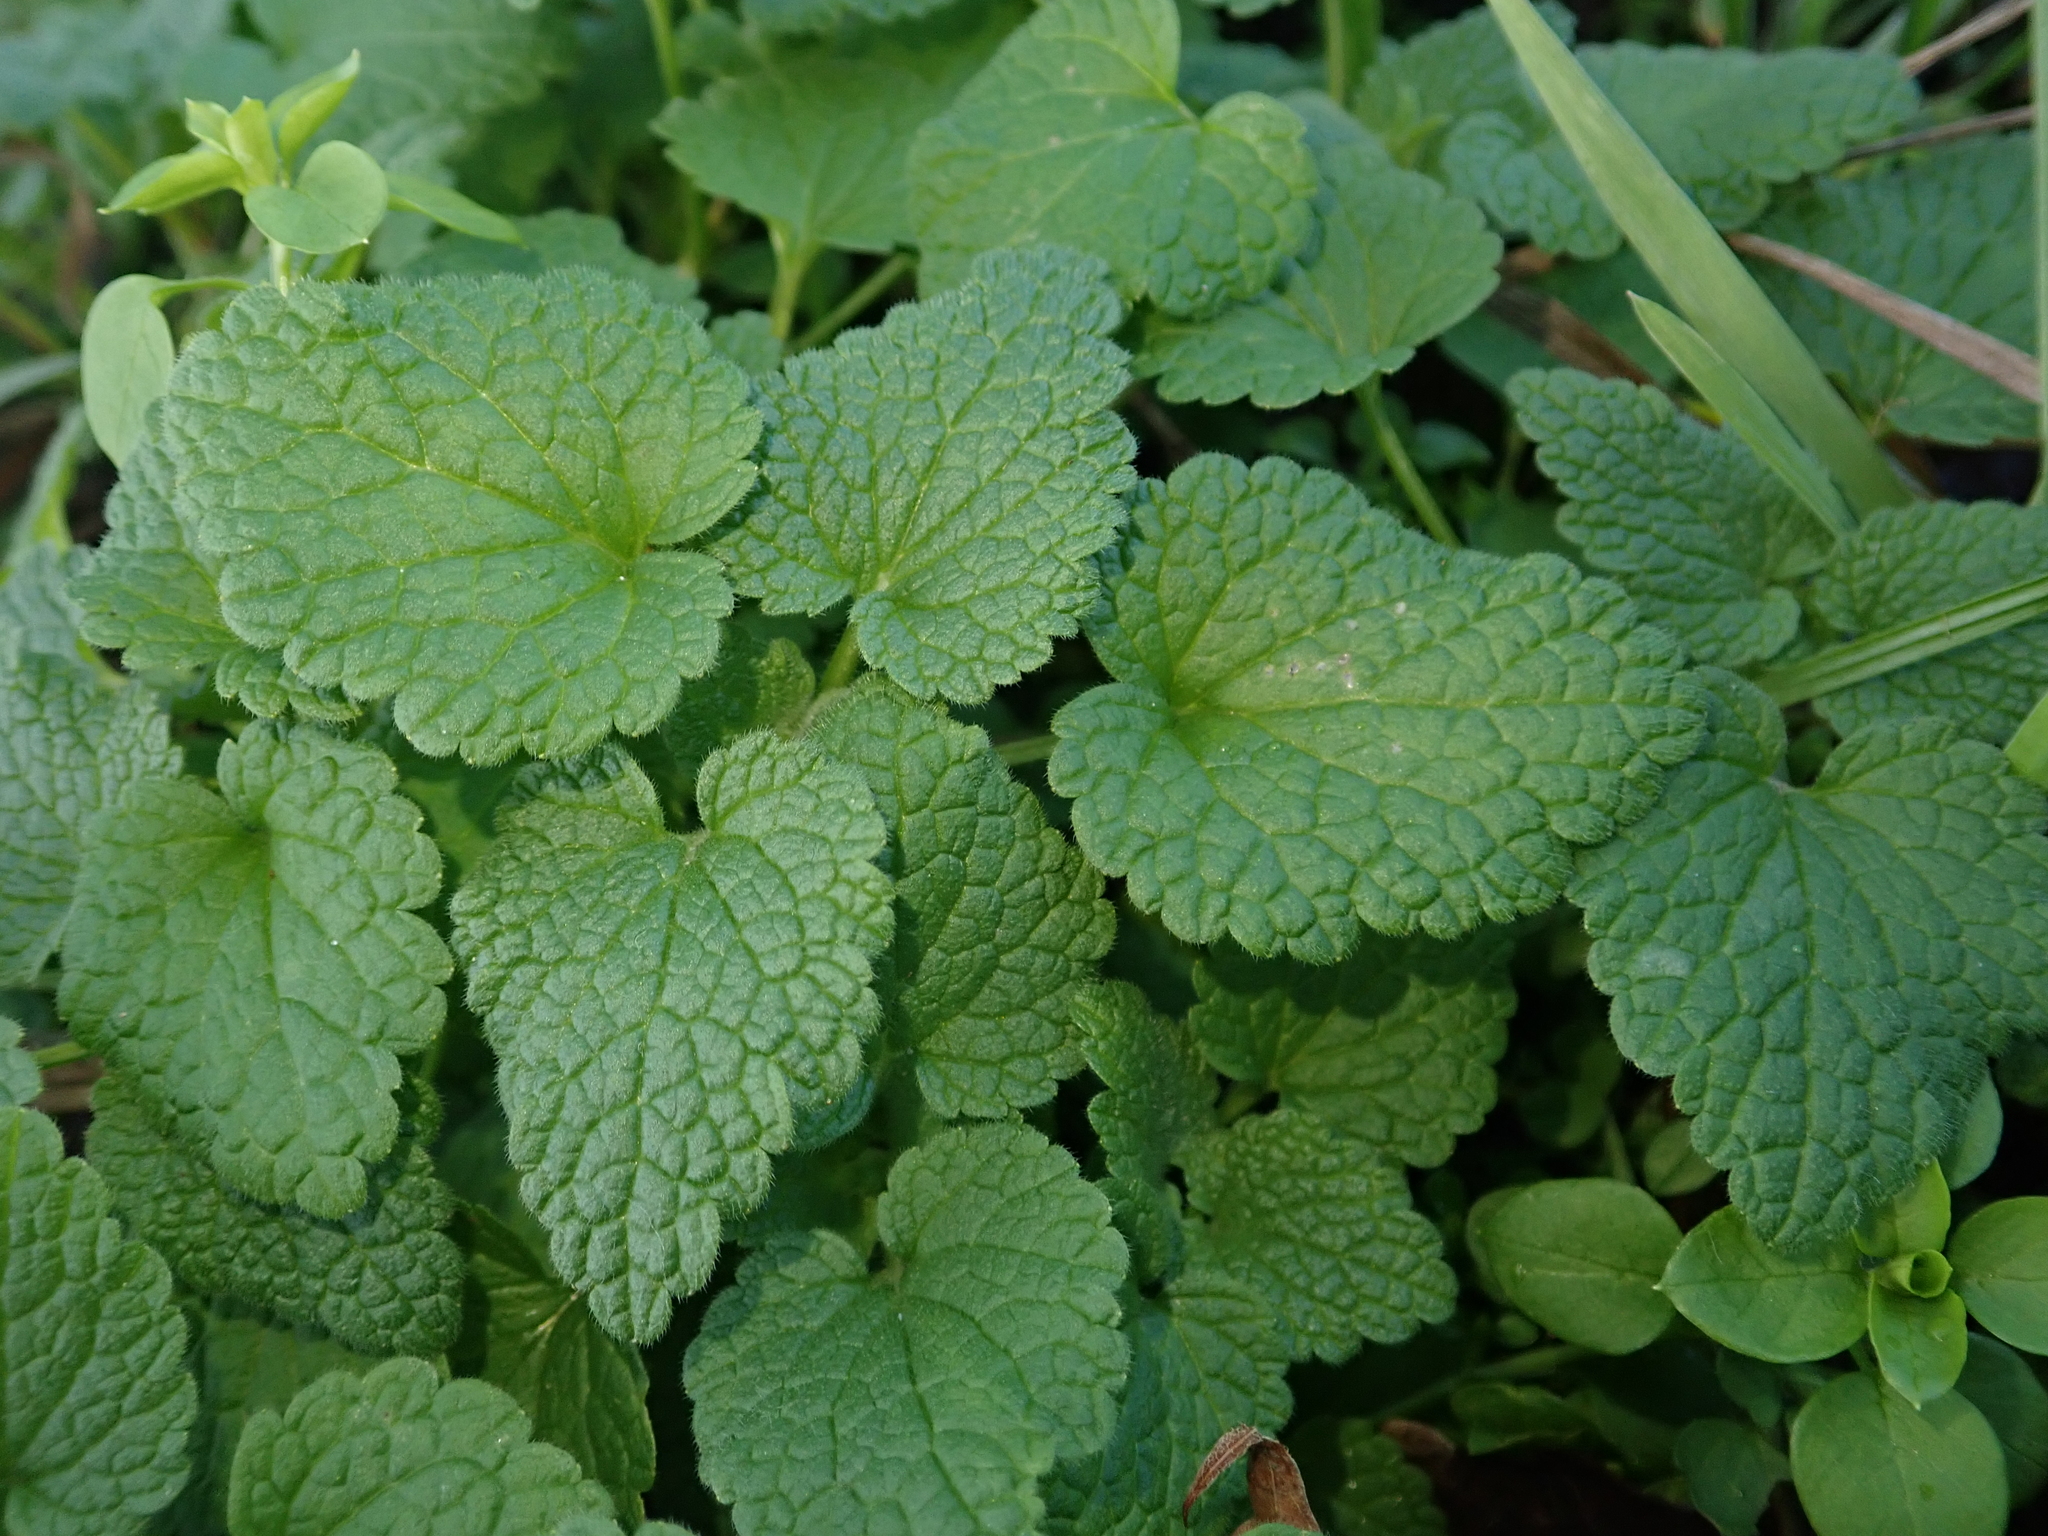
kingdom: Plantae
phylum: Tracheophyta
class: Magnoliopsida
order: Lamiales
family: Lamiaceae
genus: Lamium
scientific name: Lamium purpureum
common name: Red dead-nettle
